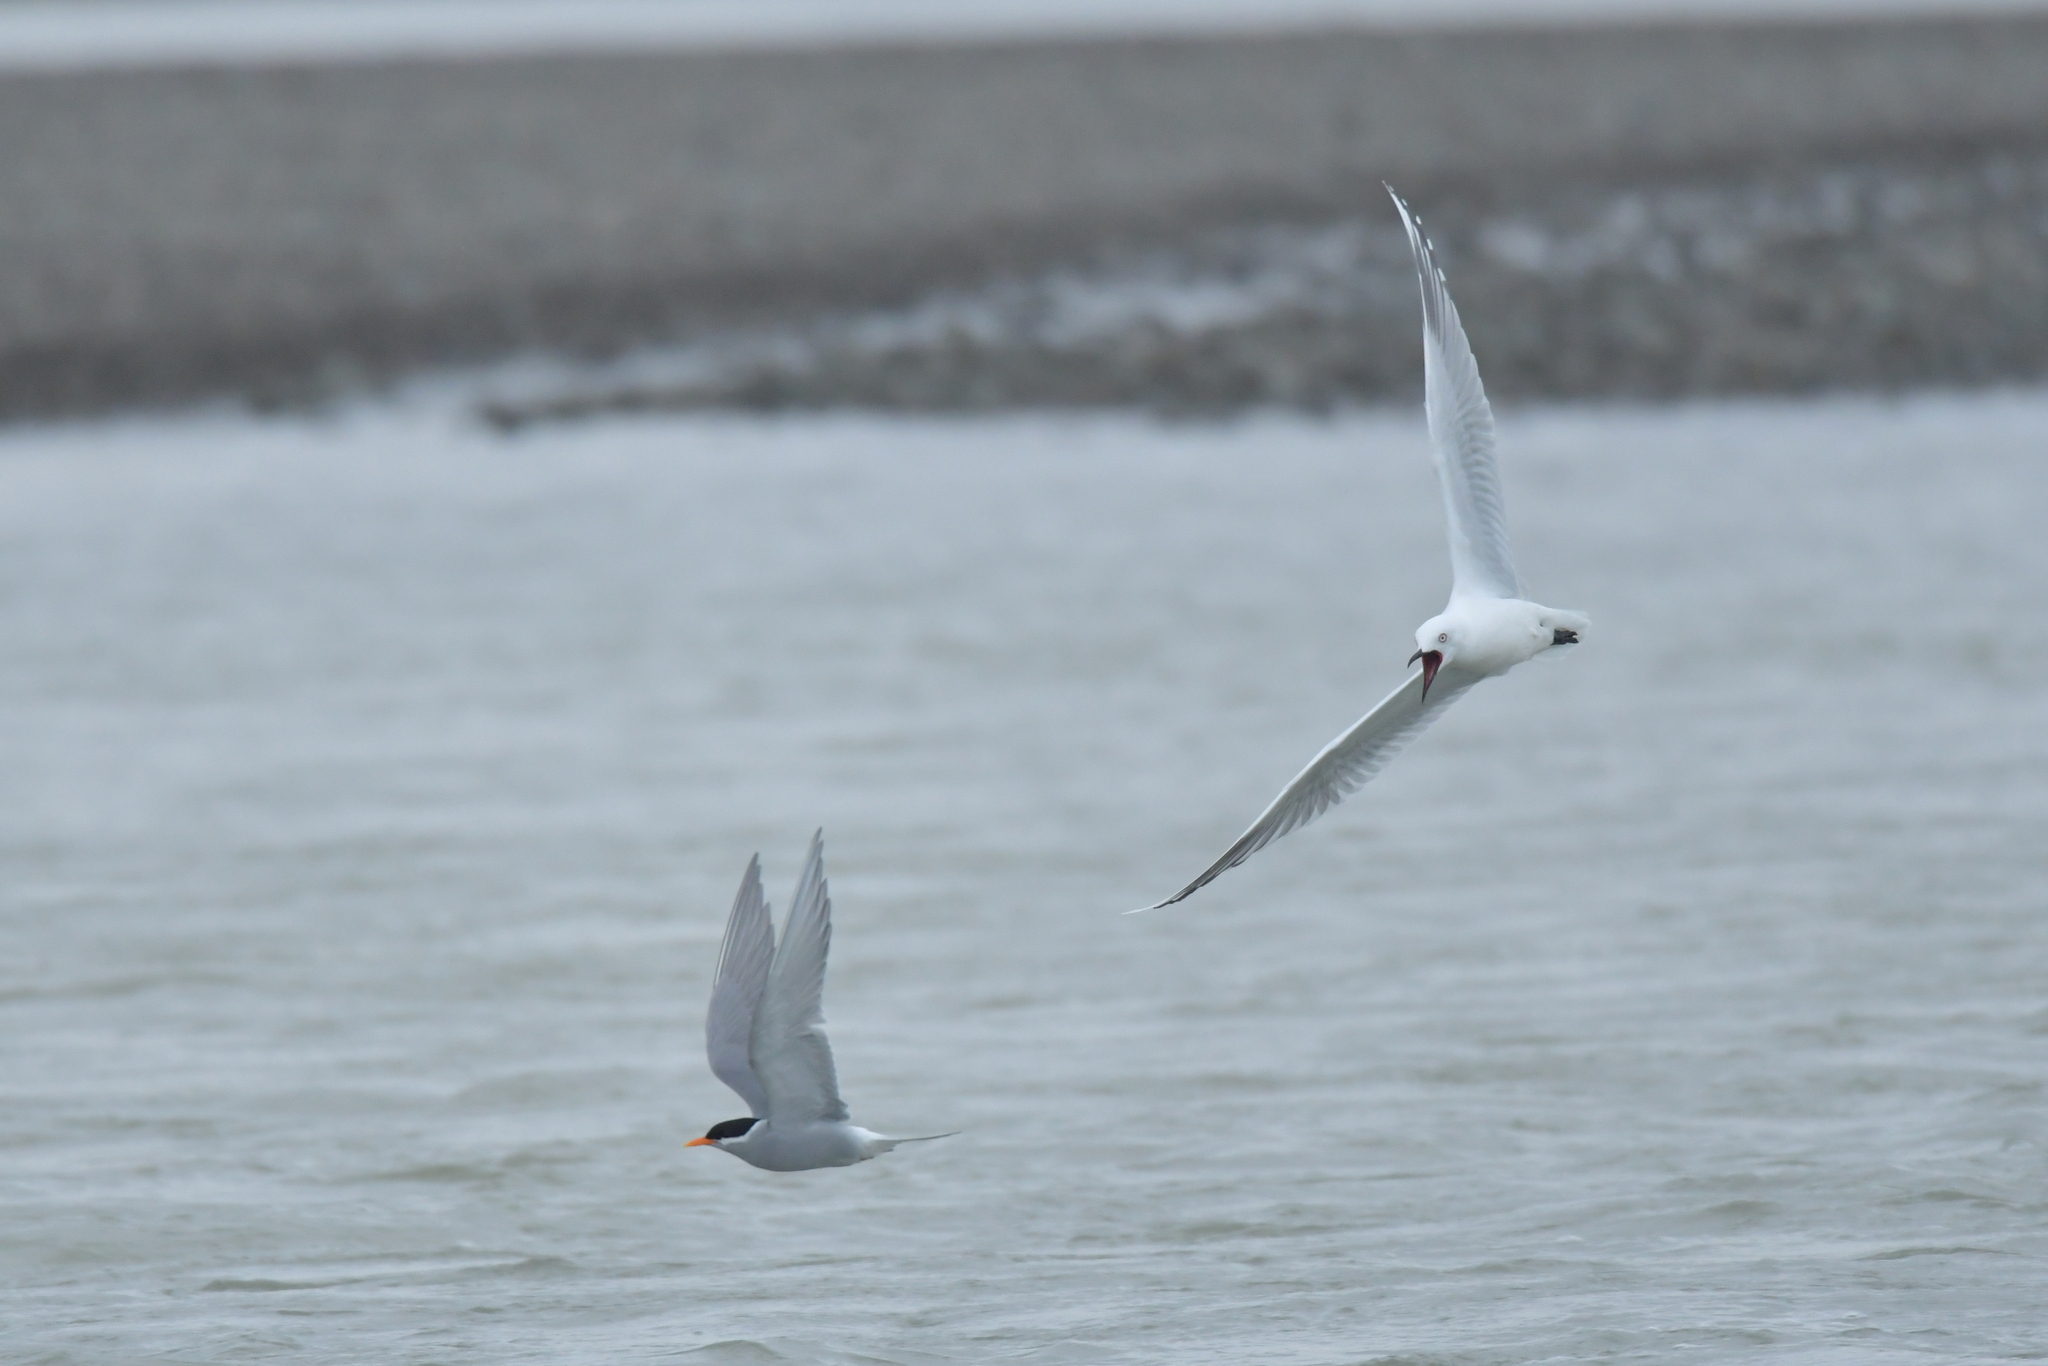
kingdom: Animalia
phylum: Chordata
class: Aves
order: Charadriiformes
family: Laridae
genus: Chroicocephalus
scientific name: Chroicocephalus bulleri
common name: Black-billed gull
